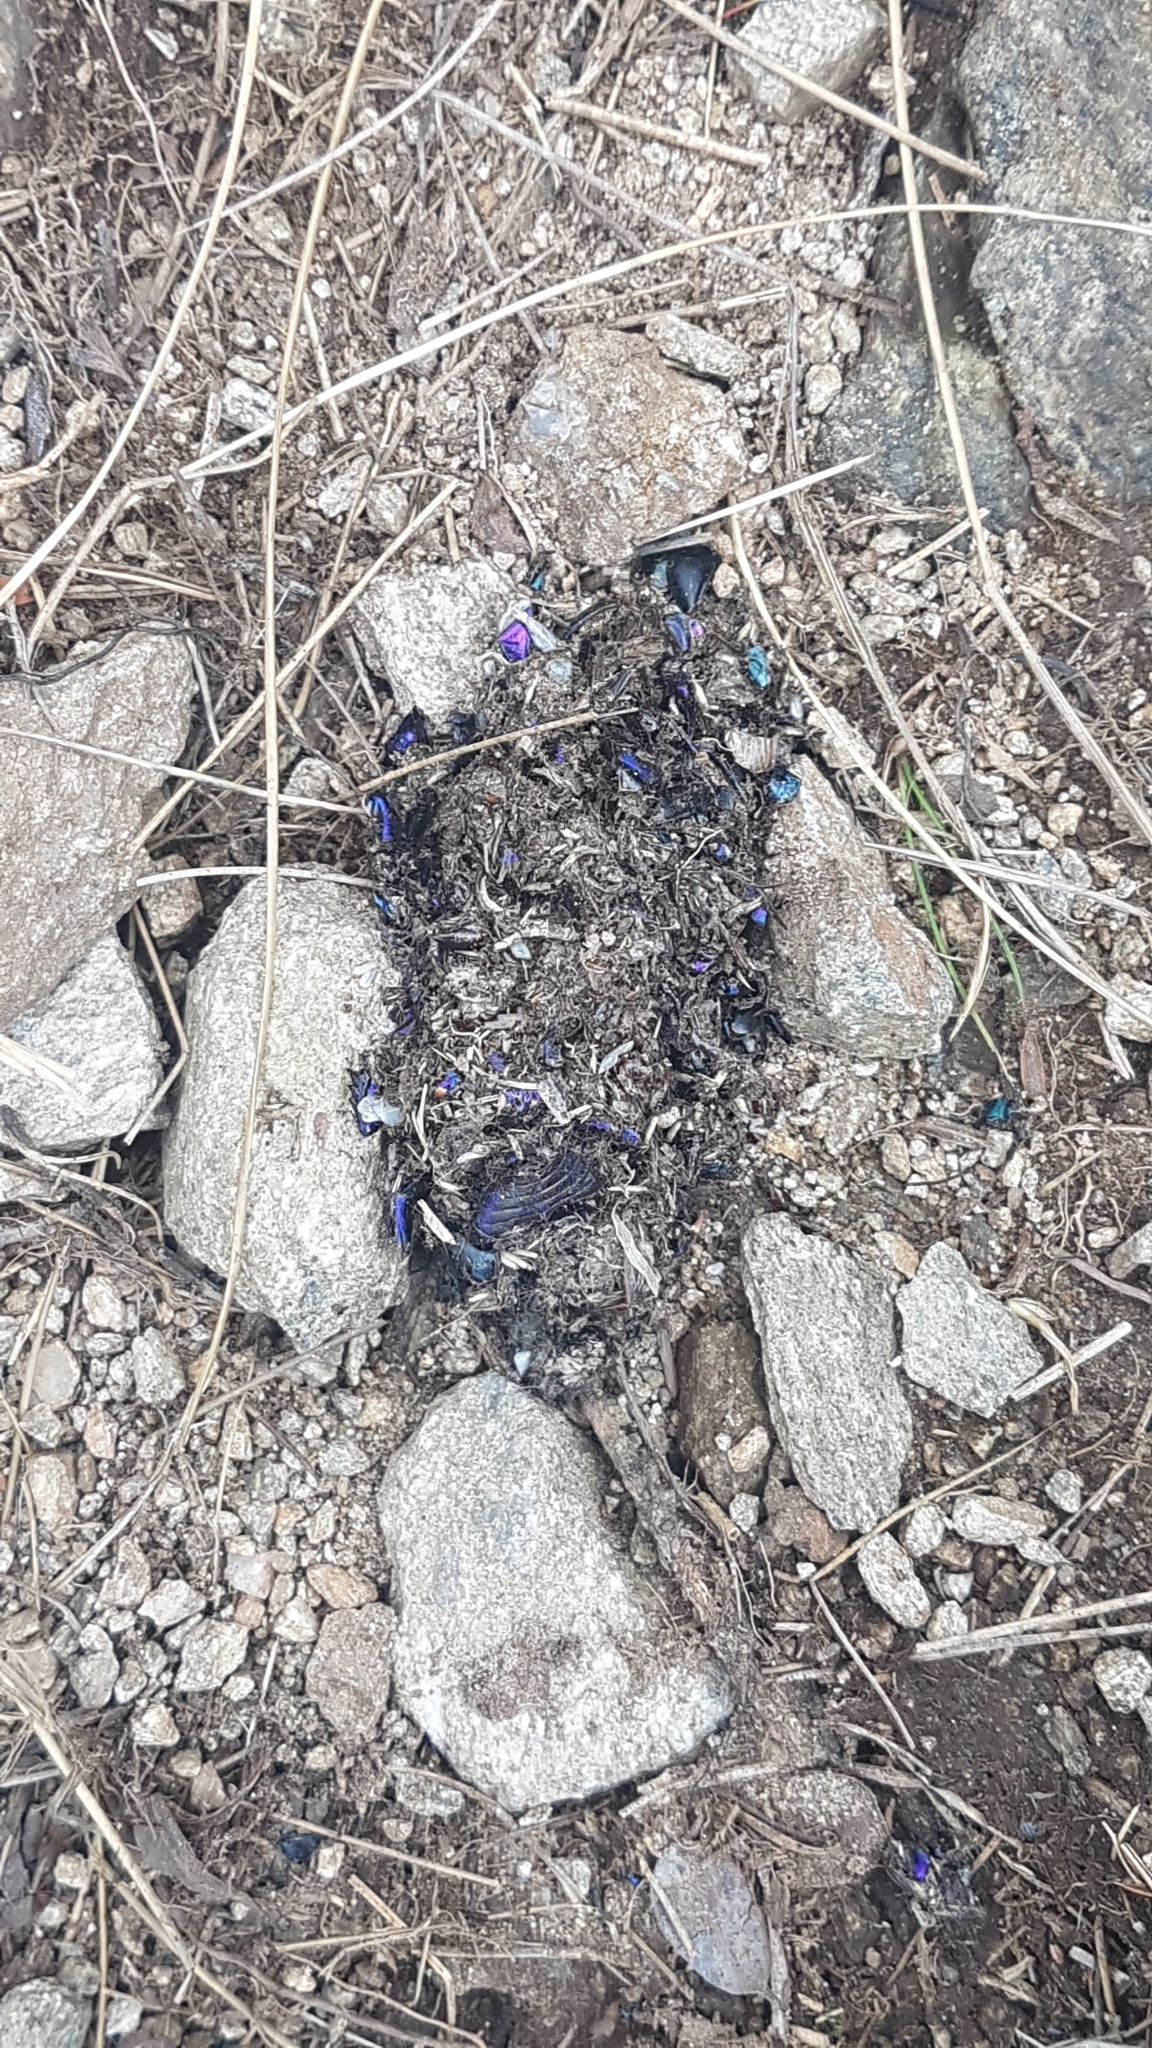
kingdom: Animalia
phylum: Chordata
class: Mammalia
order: Carnivora
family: Canidae
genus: Vulpes
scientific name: Vulpes vulpes
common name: Red fox
